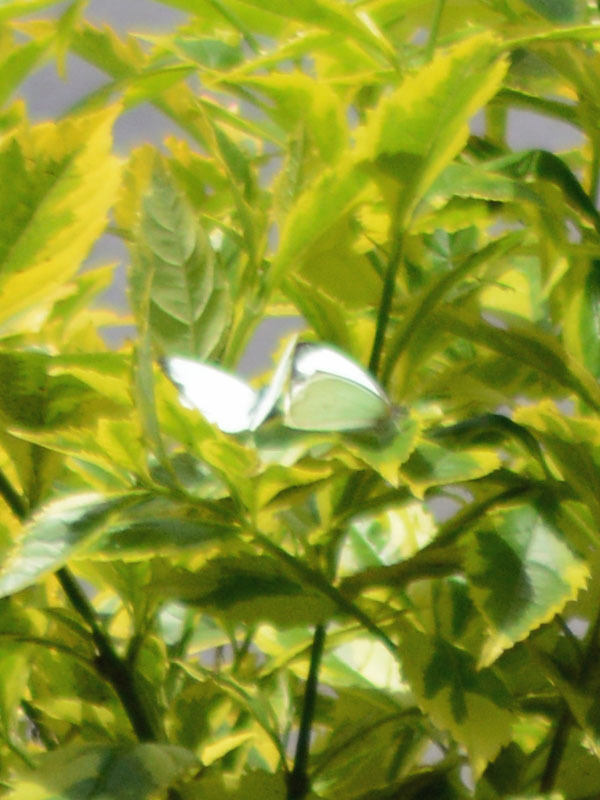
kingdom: Animalia
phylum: Arthropoda
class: Insecta
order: Lepidoptera
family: Pieridae
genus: Leptophobia
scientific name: Leptophobia aripa
